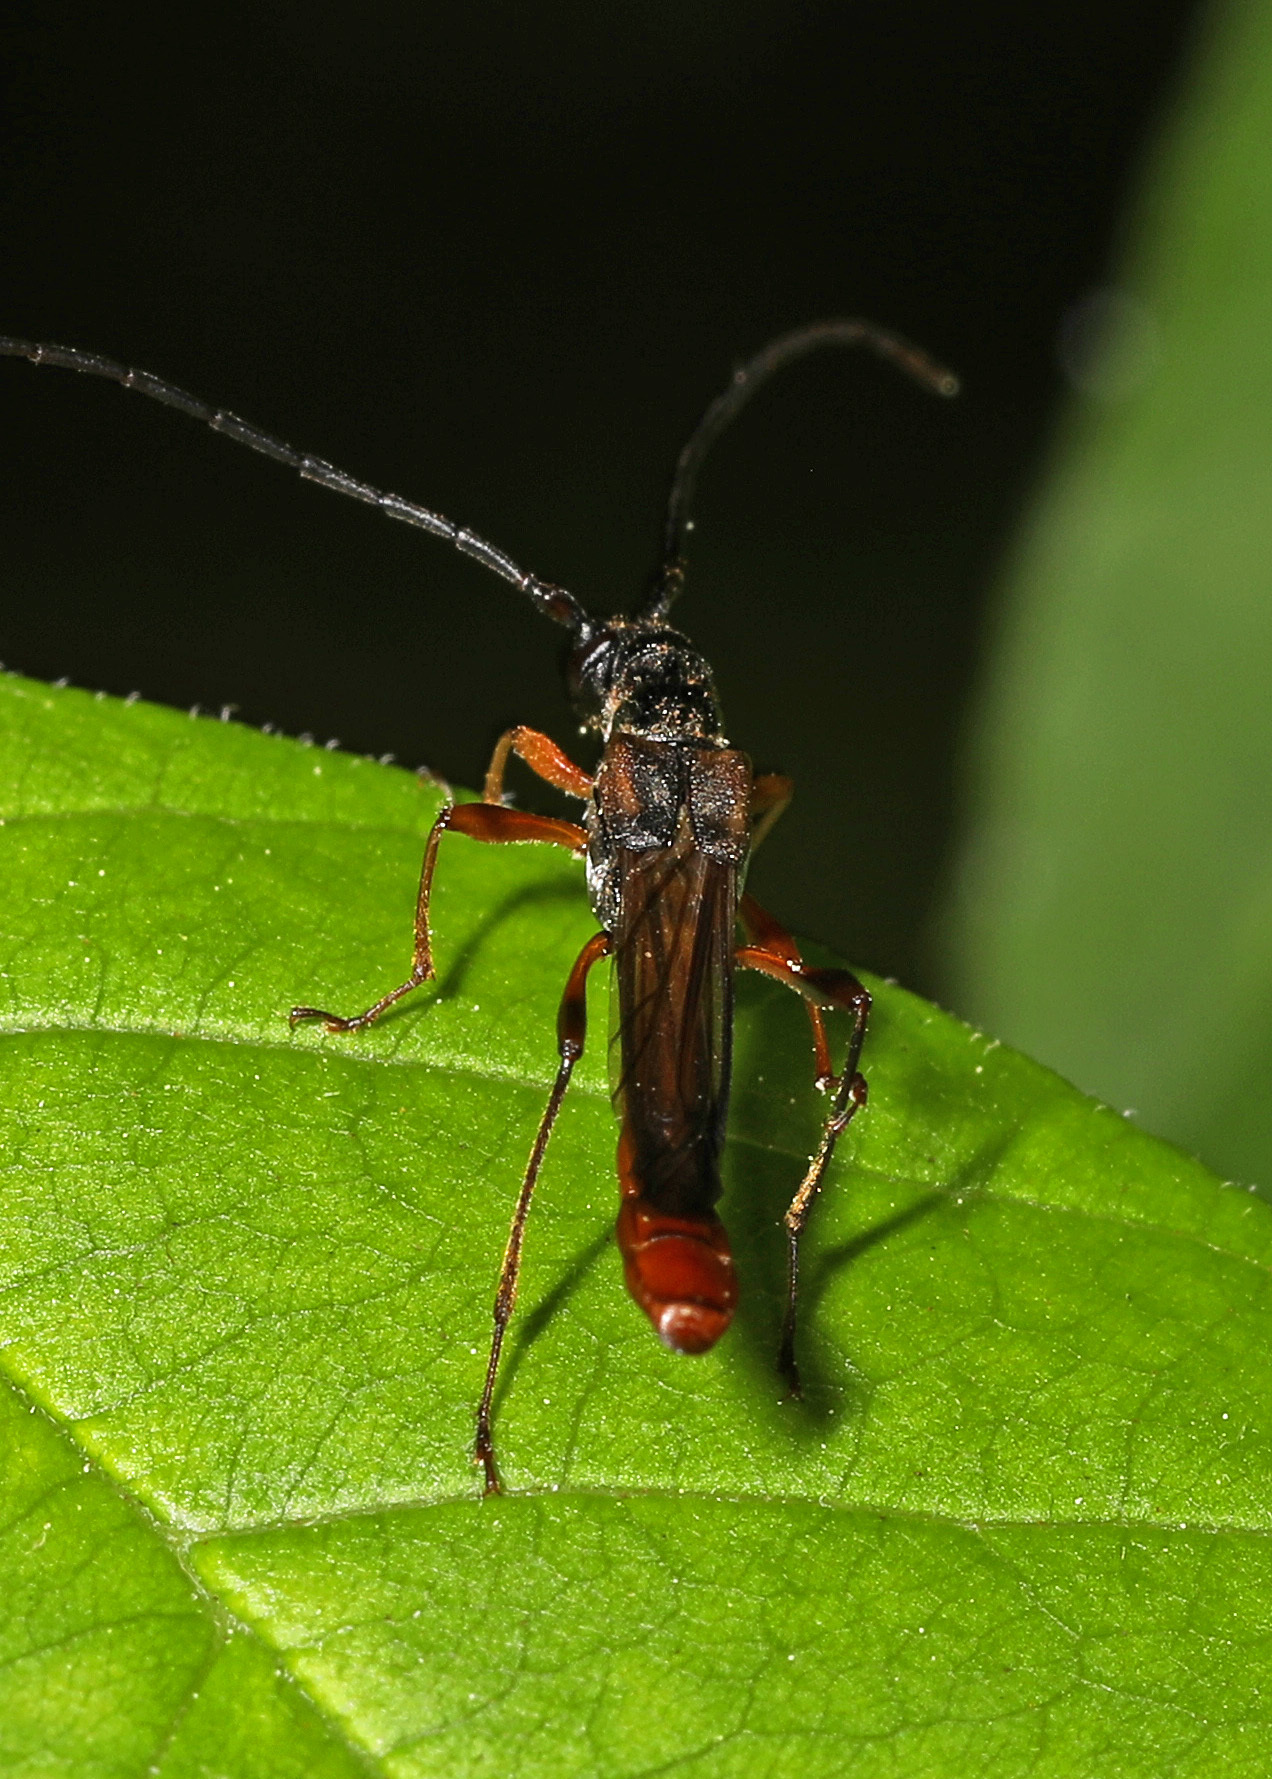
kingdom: Animalia
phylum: Arthropoda
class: Insecta
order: Coleoptera
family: Cerambycidae
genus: Necydalis
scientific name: Necydalis mellita
